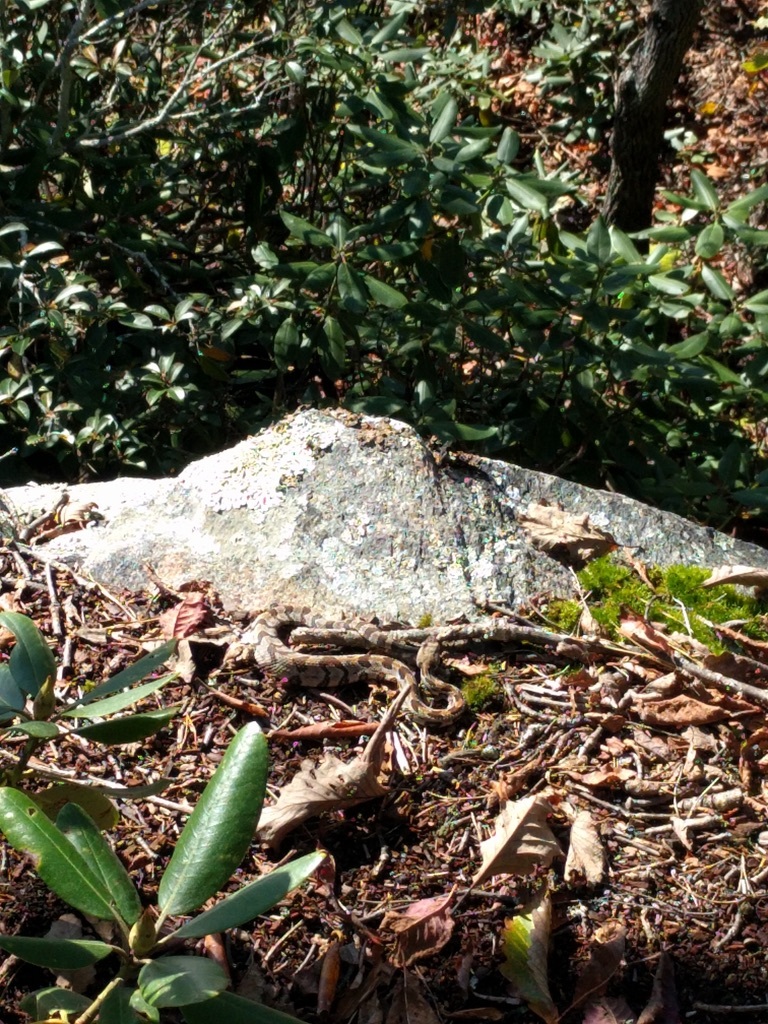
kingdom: Animalia
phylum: Chordata
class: Squamata
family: Viperidae
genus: Crotalus
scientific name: Crotalus horridus
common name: Timber rattlesnake
